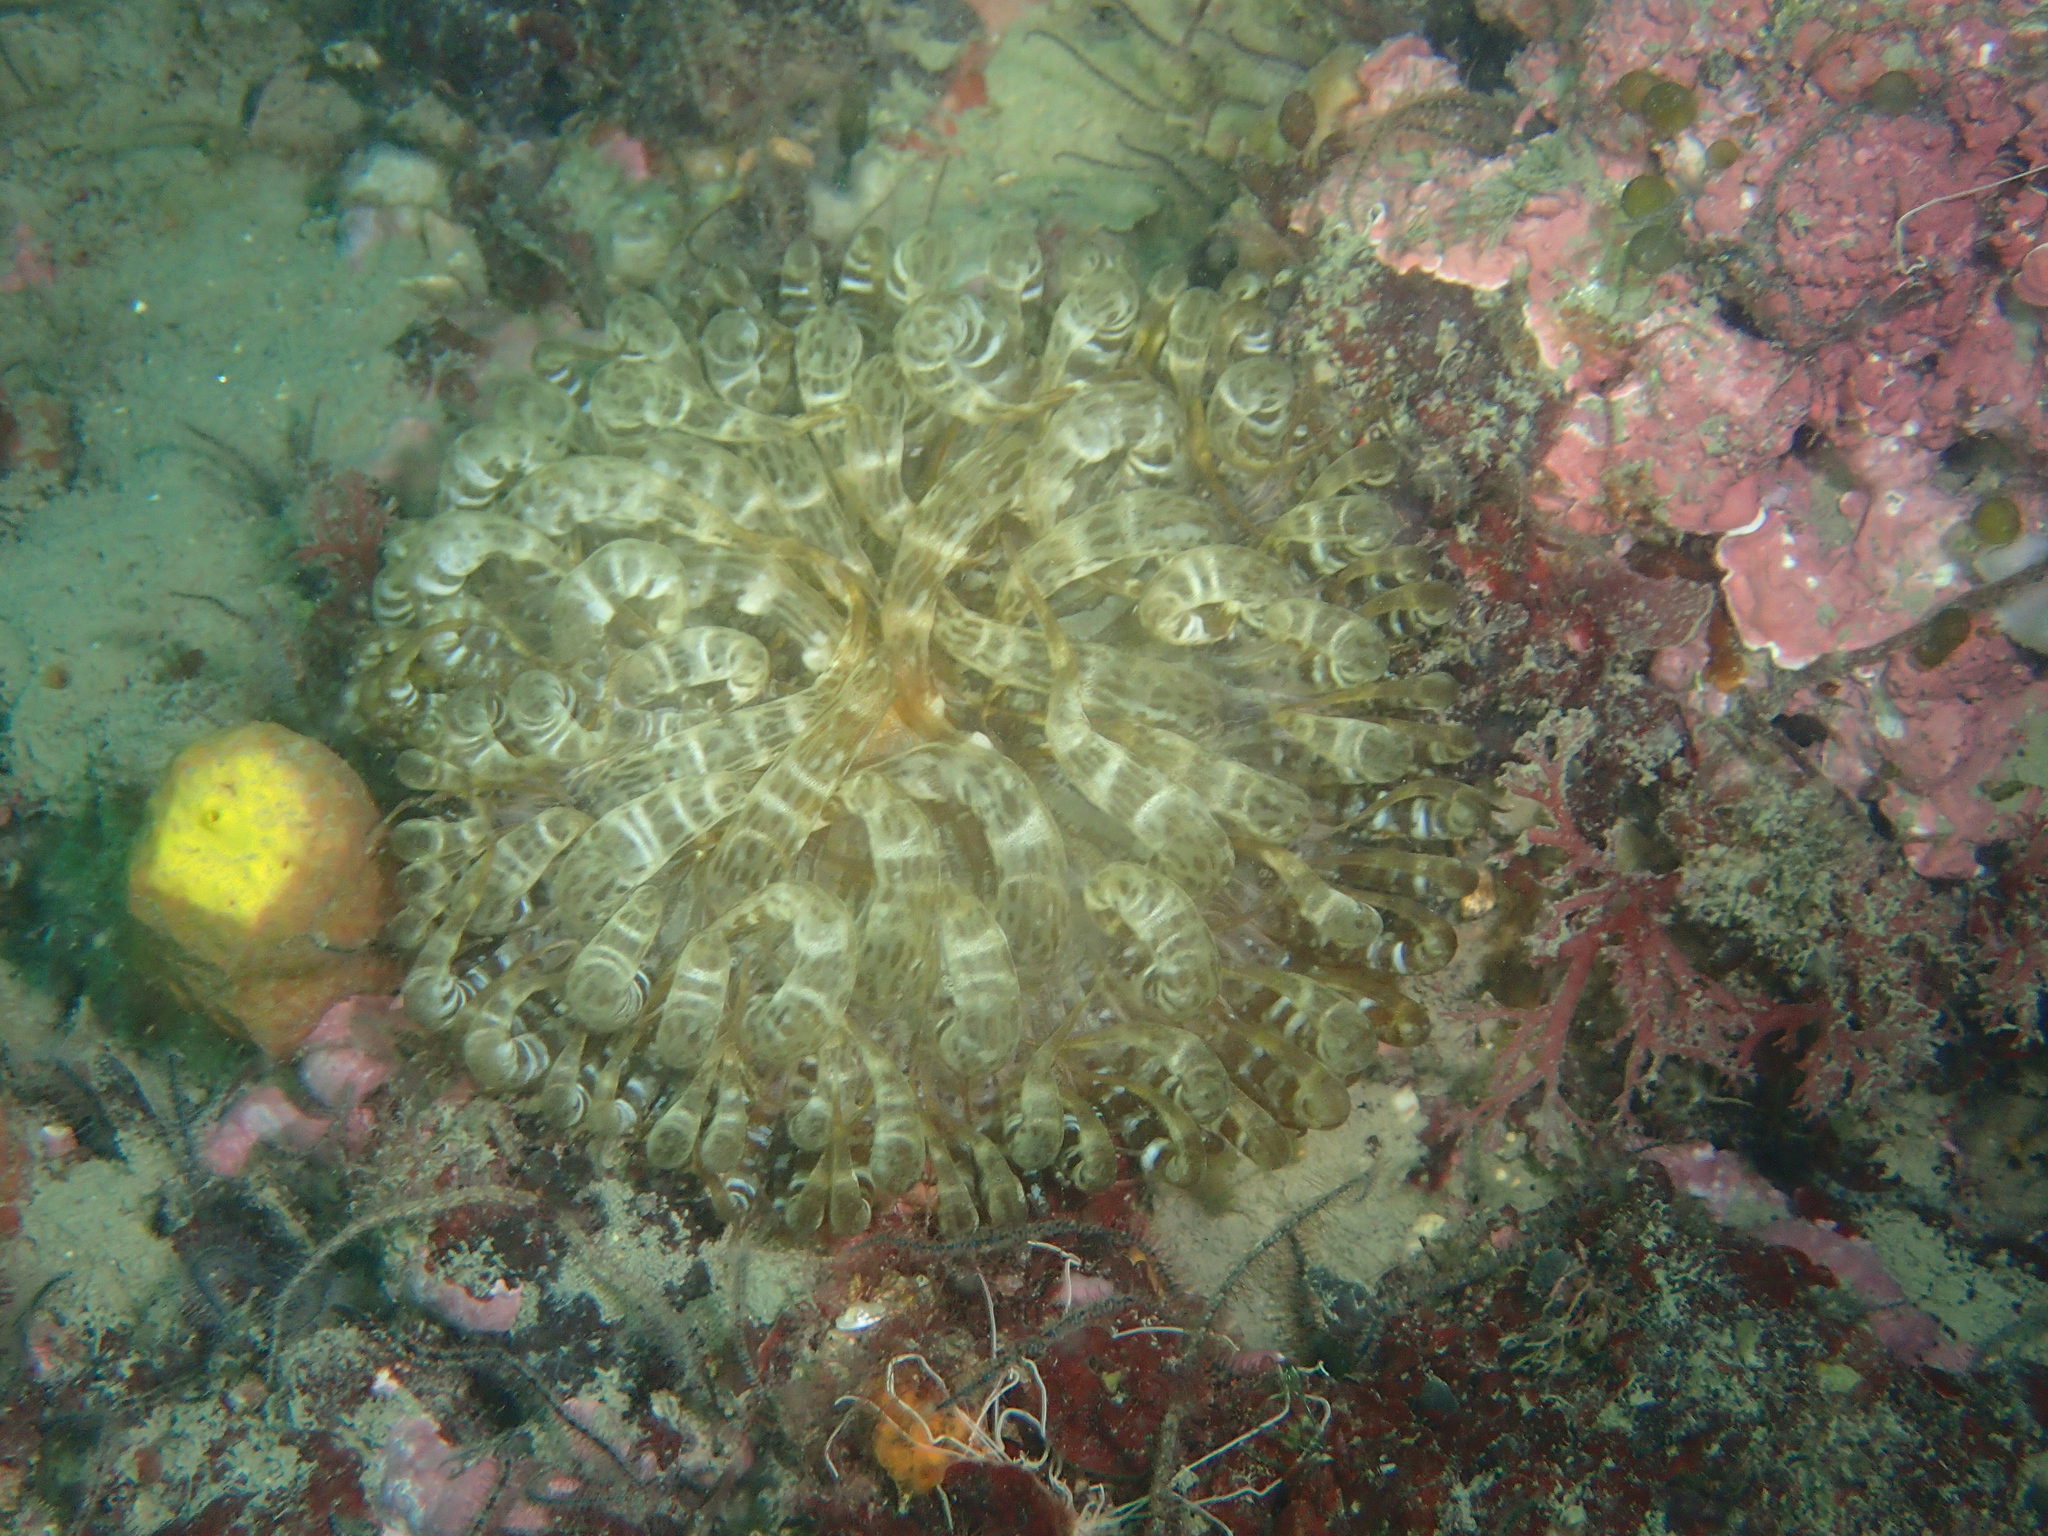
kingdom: Animalia
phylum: Cnidaria
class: Anthozoa
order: Actiniaria
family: Aiptasiidae
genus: Aiptasia
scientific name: Aiptasia mutabilis
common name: Trumpet anemone
